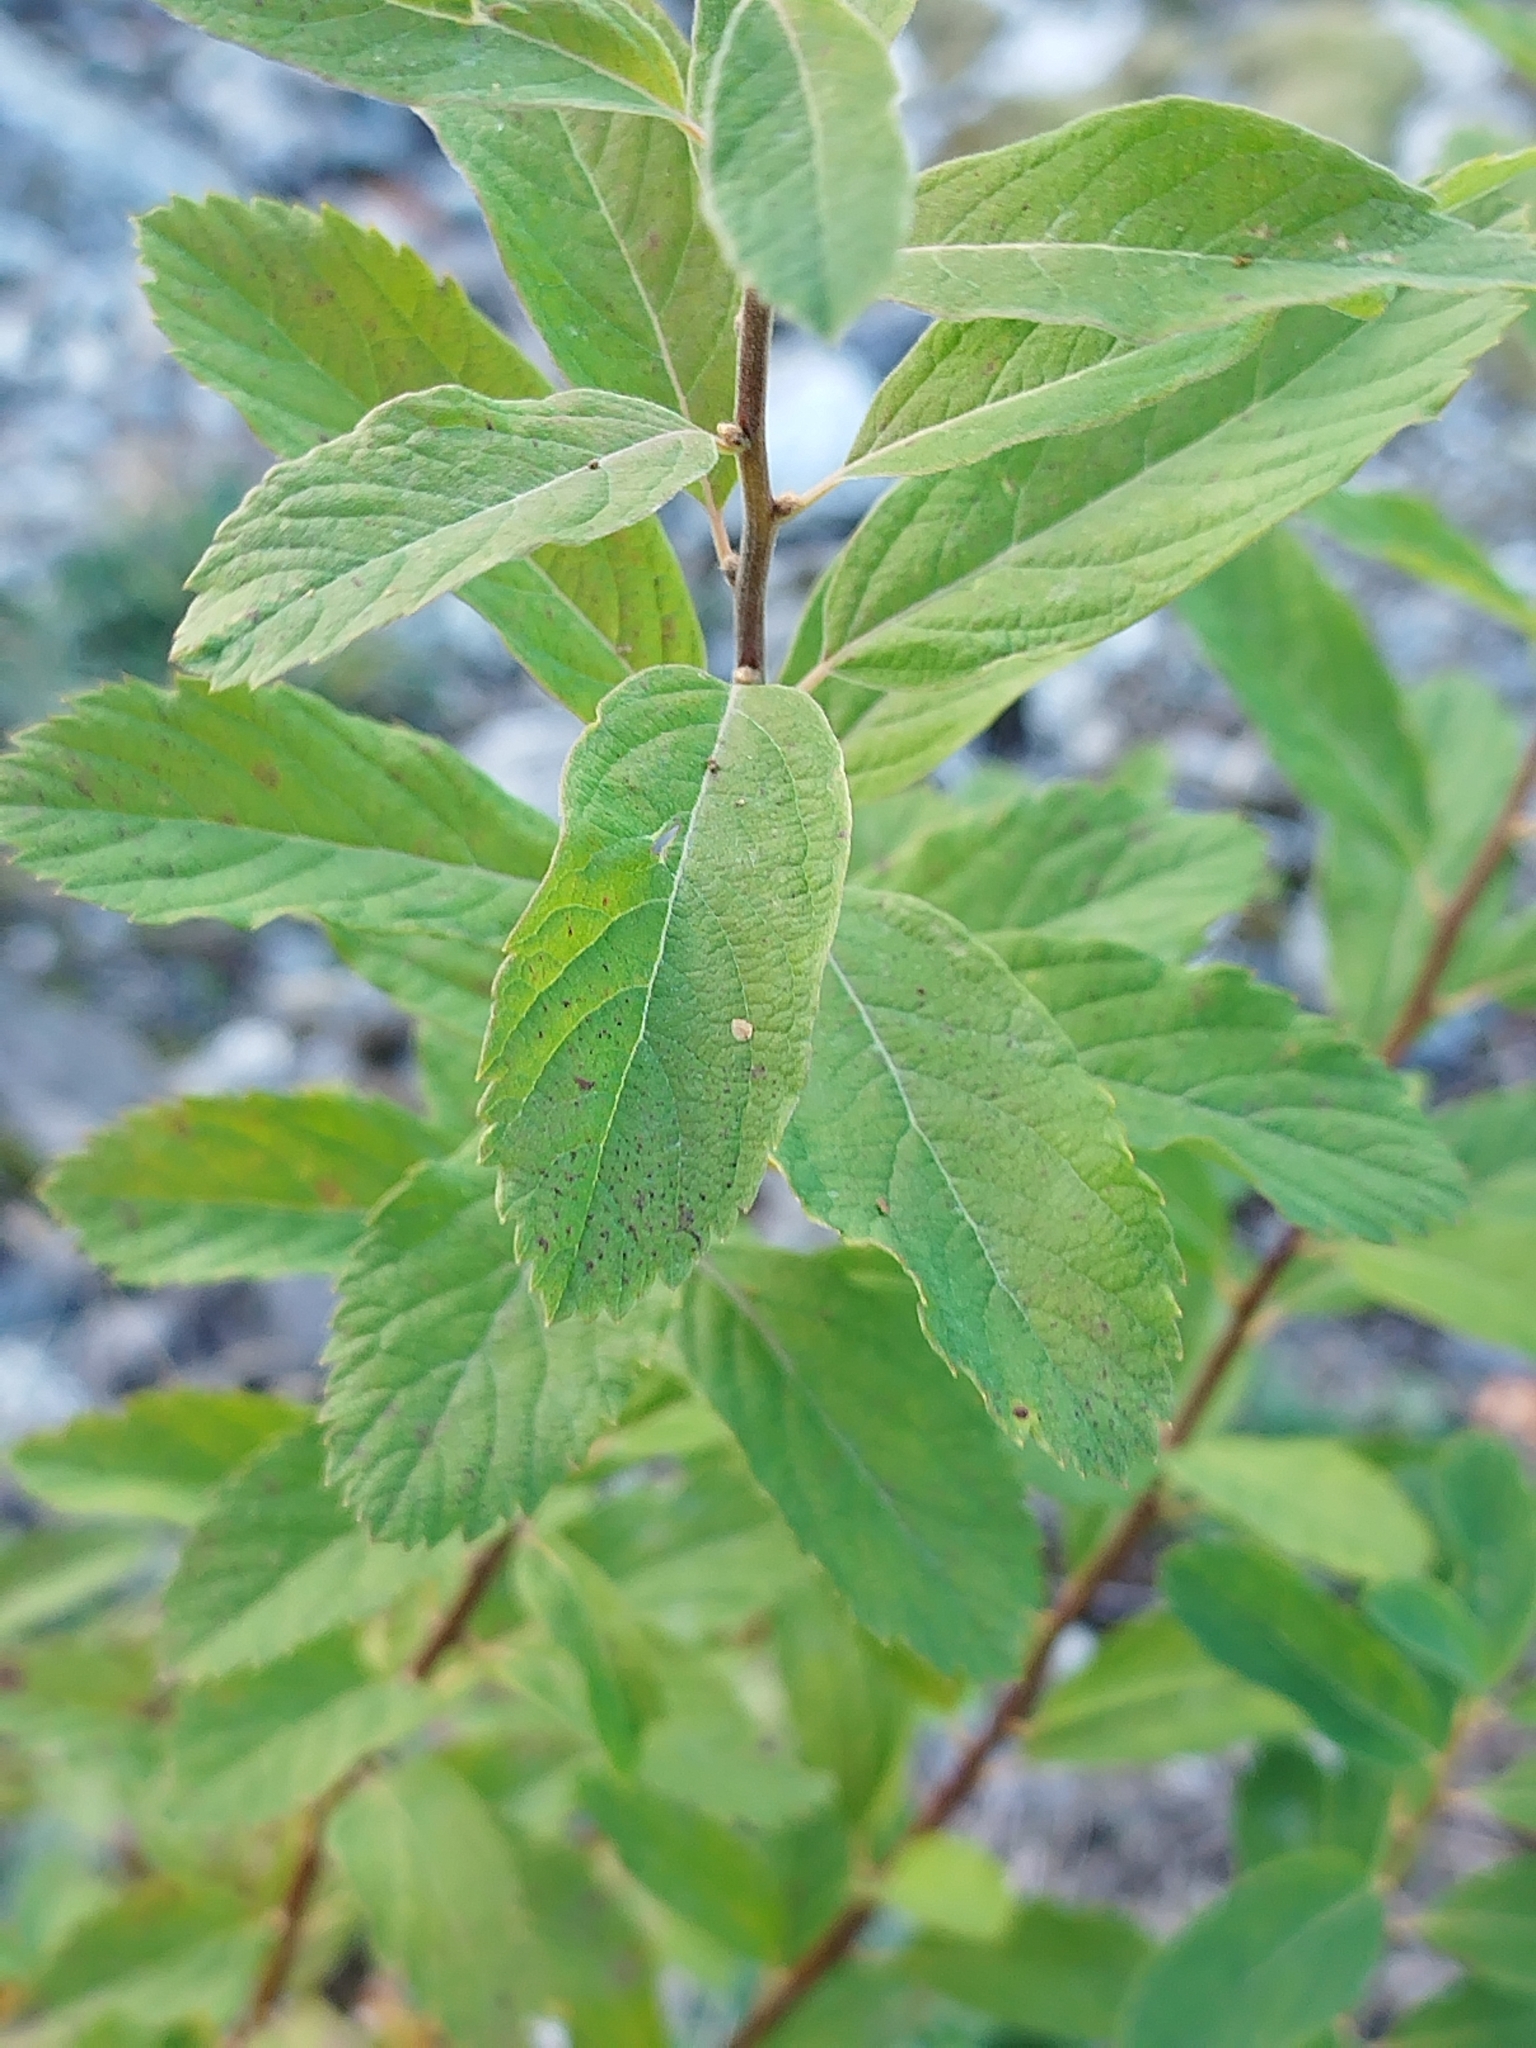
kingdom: Plantae
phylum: Tracheophyta
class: Magnoliopsida
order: Rosales
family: Rosaceae
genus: Spiraea
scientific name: Spiraea douglasii
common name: Steeplebush
